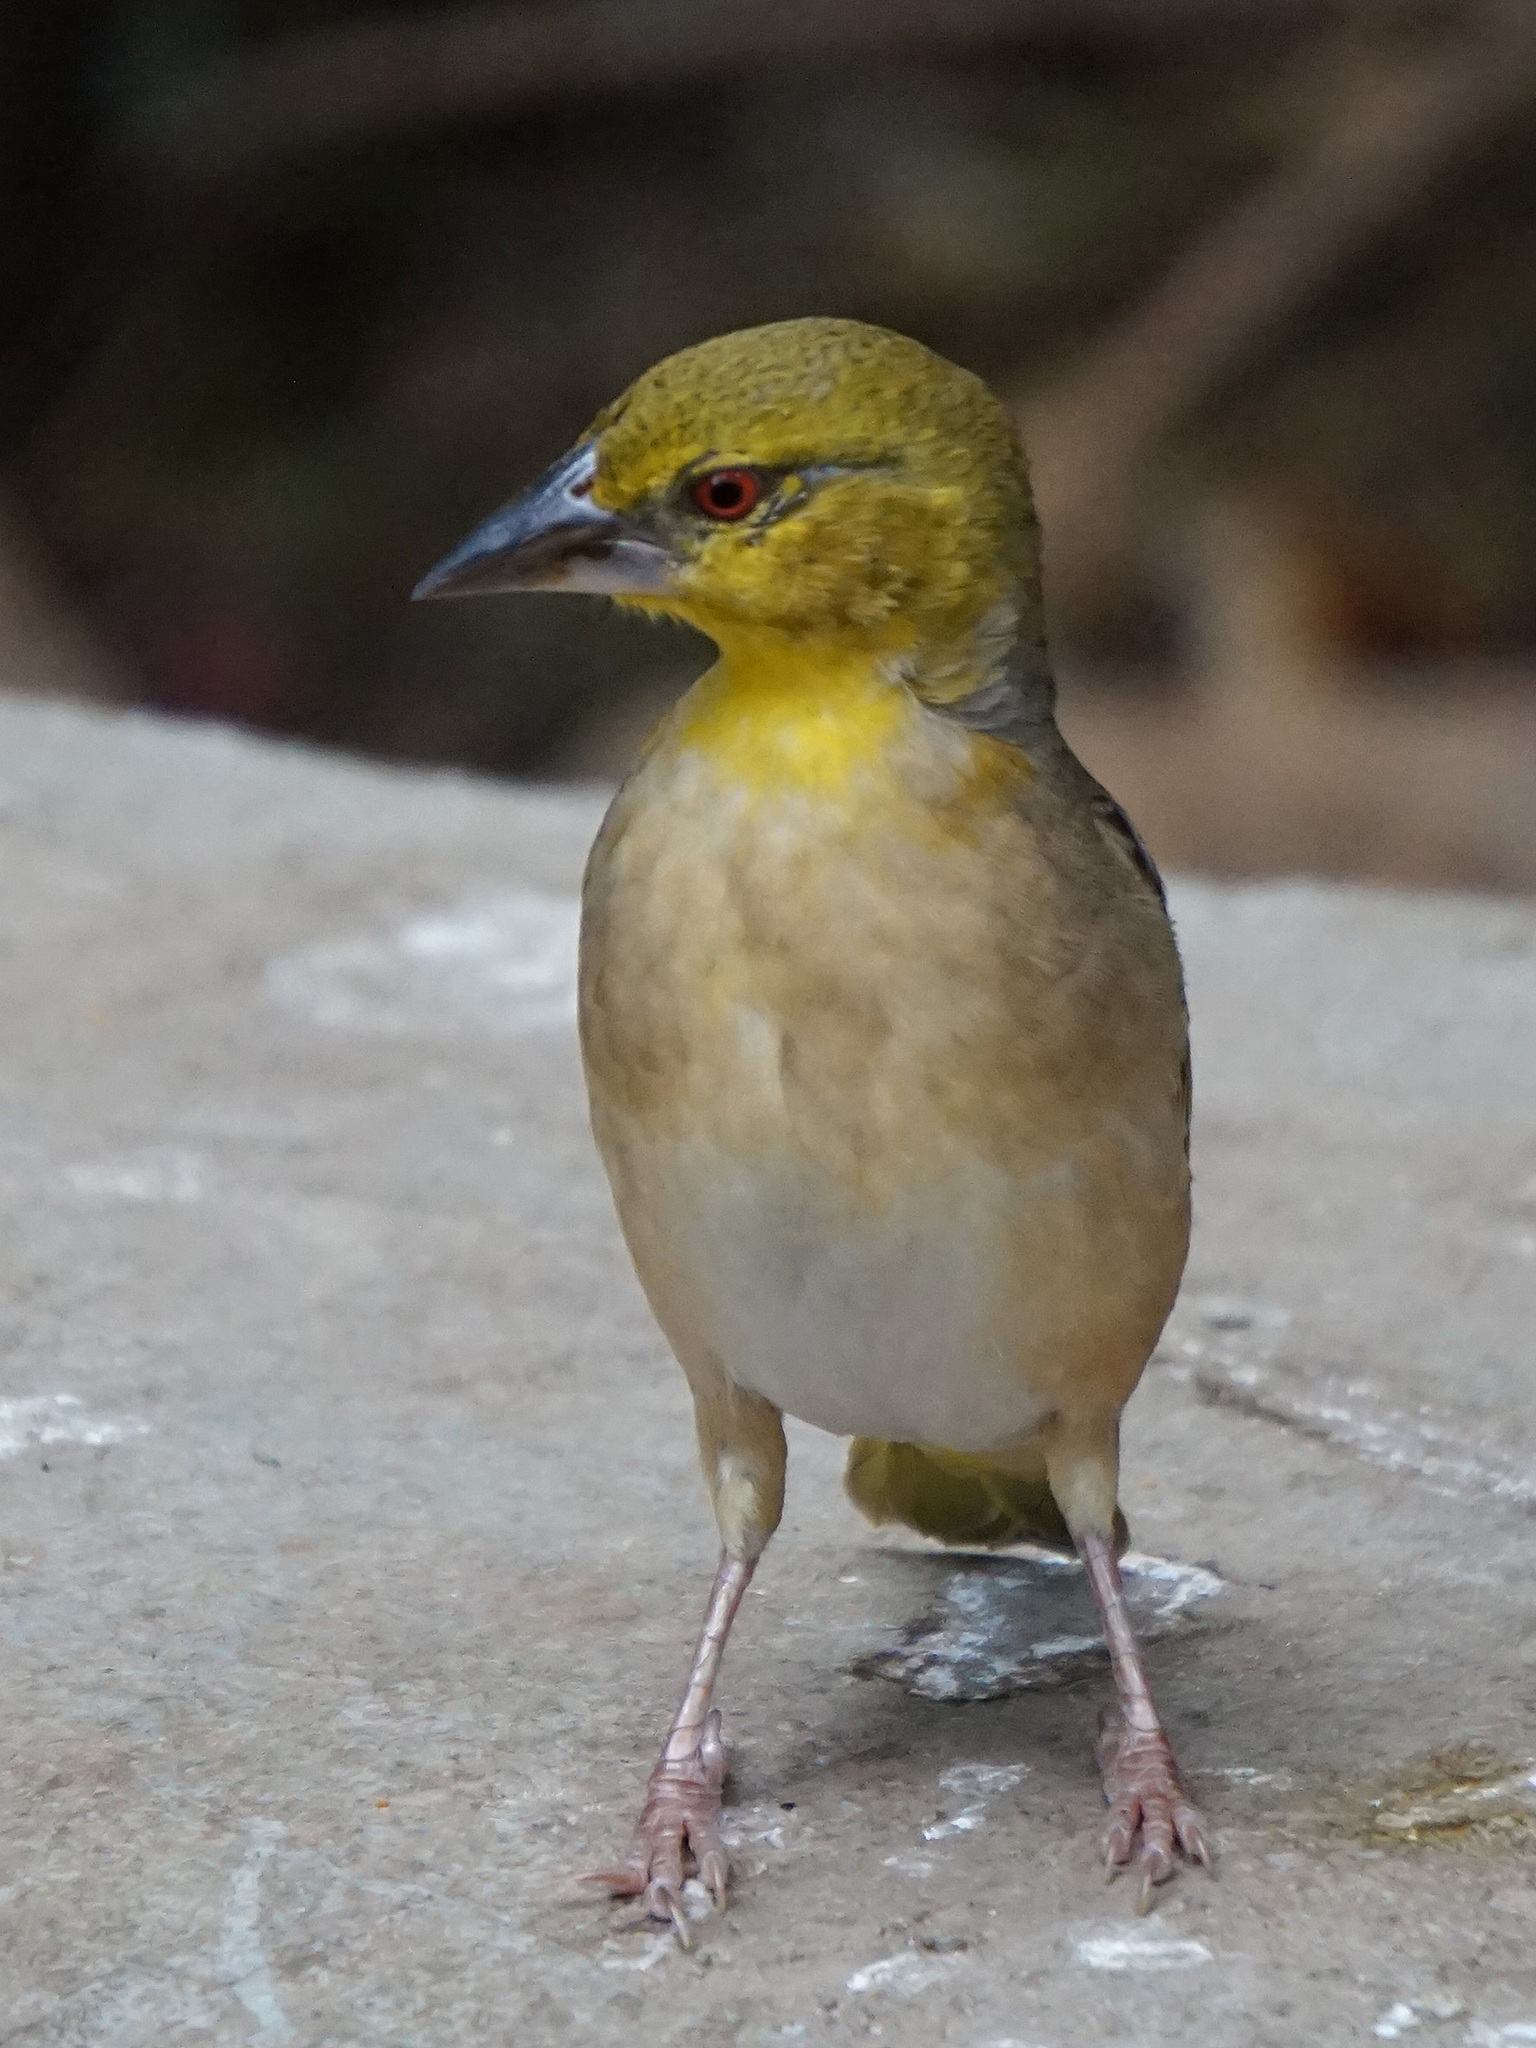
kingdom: Animalia
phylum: Chordata
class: Aves
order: Passeriformes
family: Ploceidae
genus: Ploceus
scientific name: Ploceus cucullatus
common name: Village weaver
